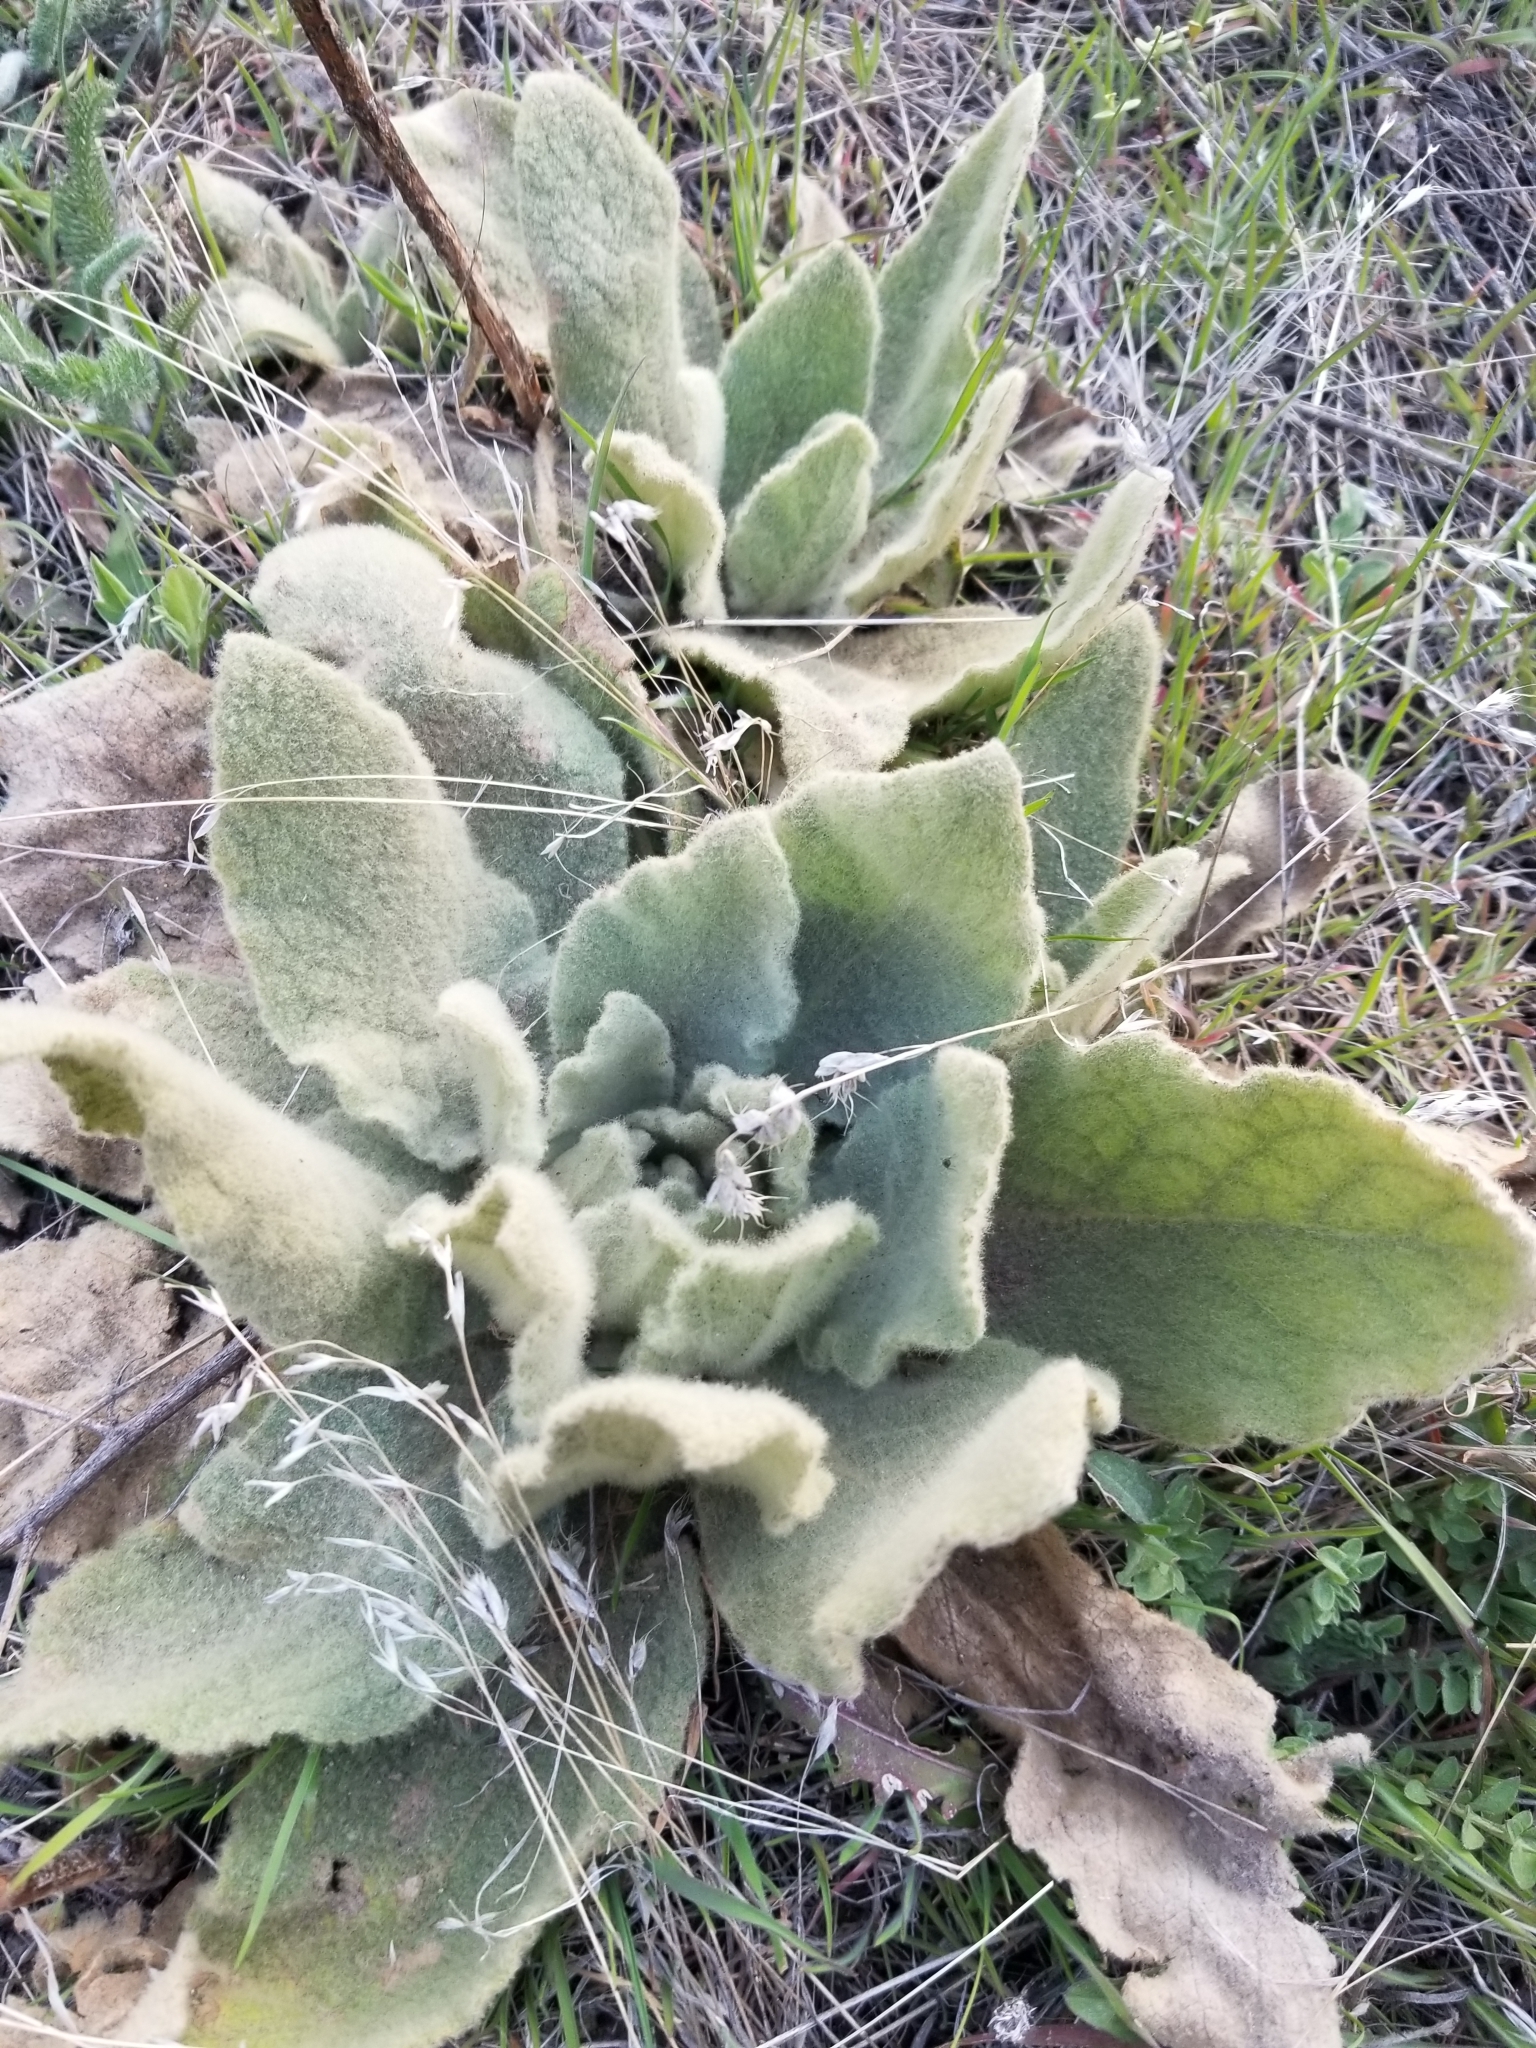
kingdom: Plantae
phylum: Tracheophyta
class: Magnoliopsida
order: Lamiales
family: Scrophulariaceae
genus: Verbascum
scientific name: Verbascum thapsus
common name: Common mullein
